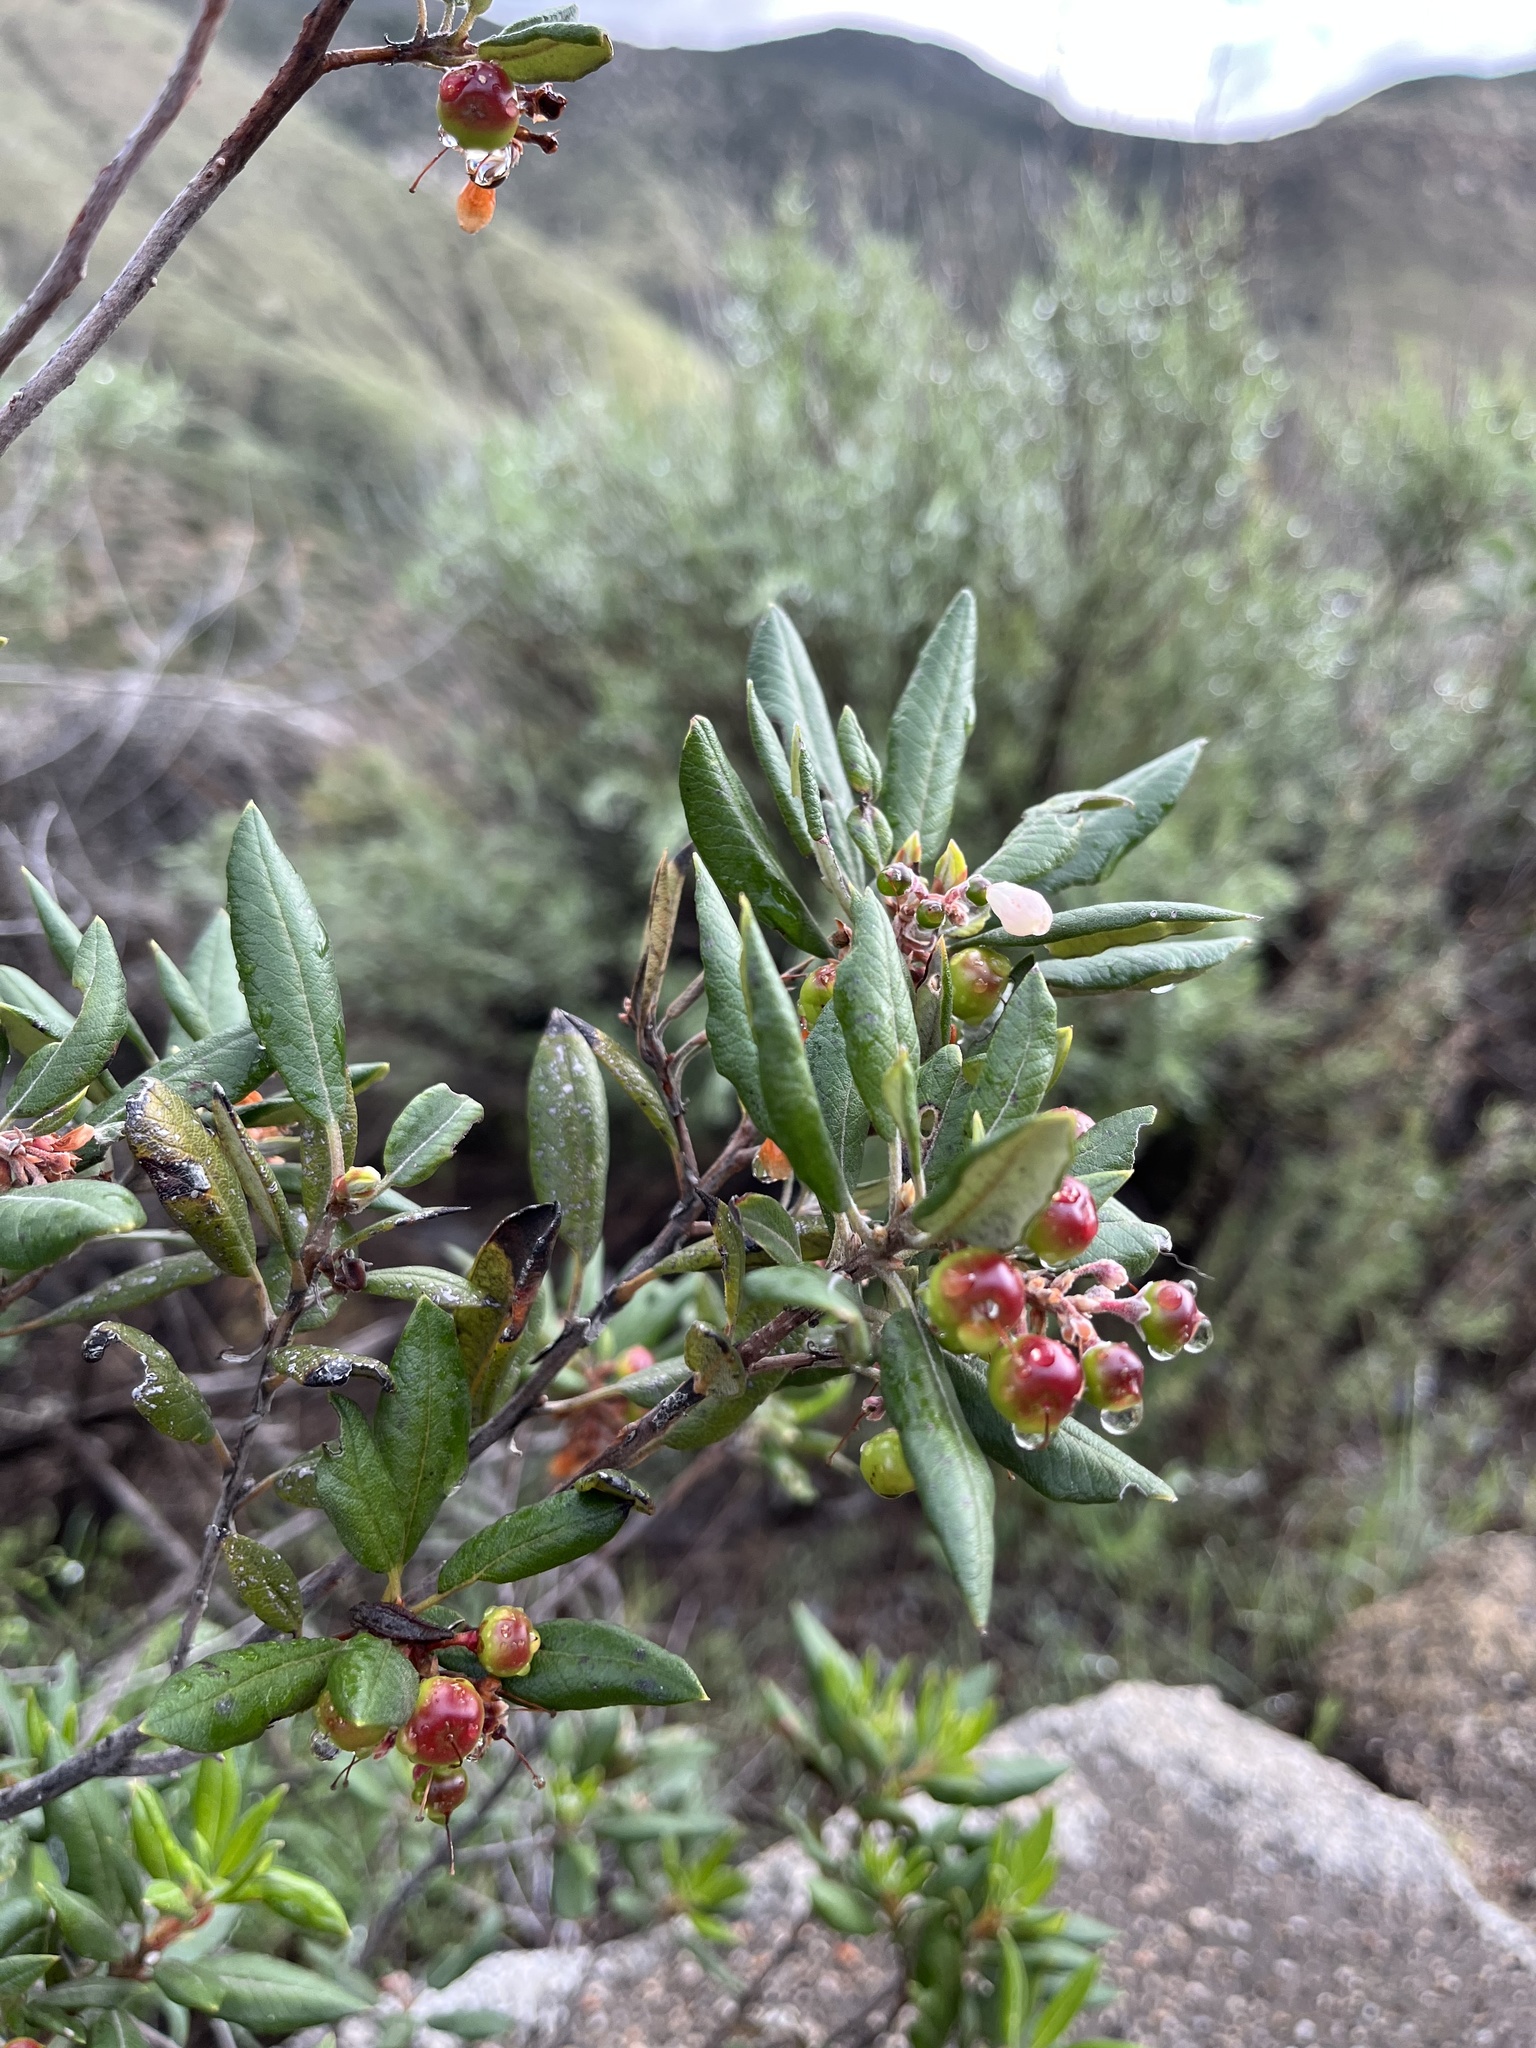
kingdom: Plantae
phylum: Tracheophyta
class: Magnoliopsida
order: Ericales
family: Ericaceae
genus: Arctostaphylos
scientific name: Arctostaphylos bicolor
